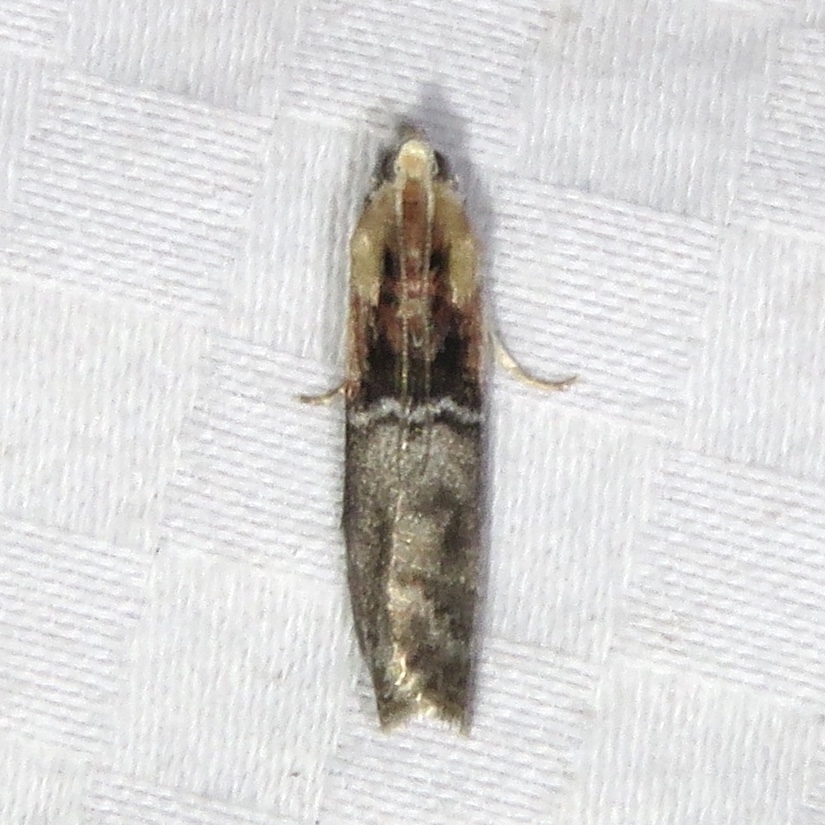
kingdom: Animalia
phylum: Arthropoda
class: Insecta
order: Lepidoptera
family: Pyralidae
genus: Sciota
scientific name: Sciota basilaris
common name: Yellow-shouldered leafroller
